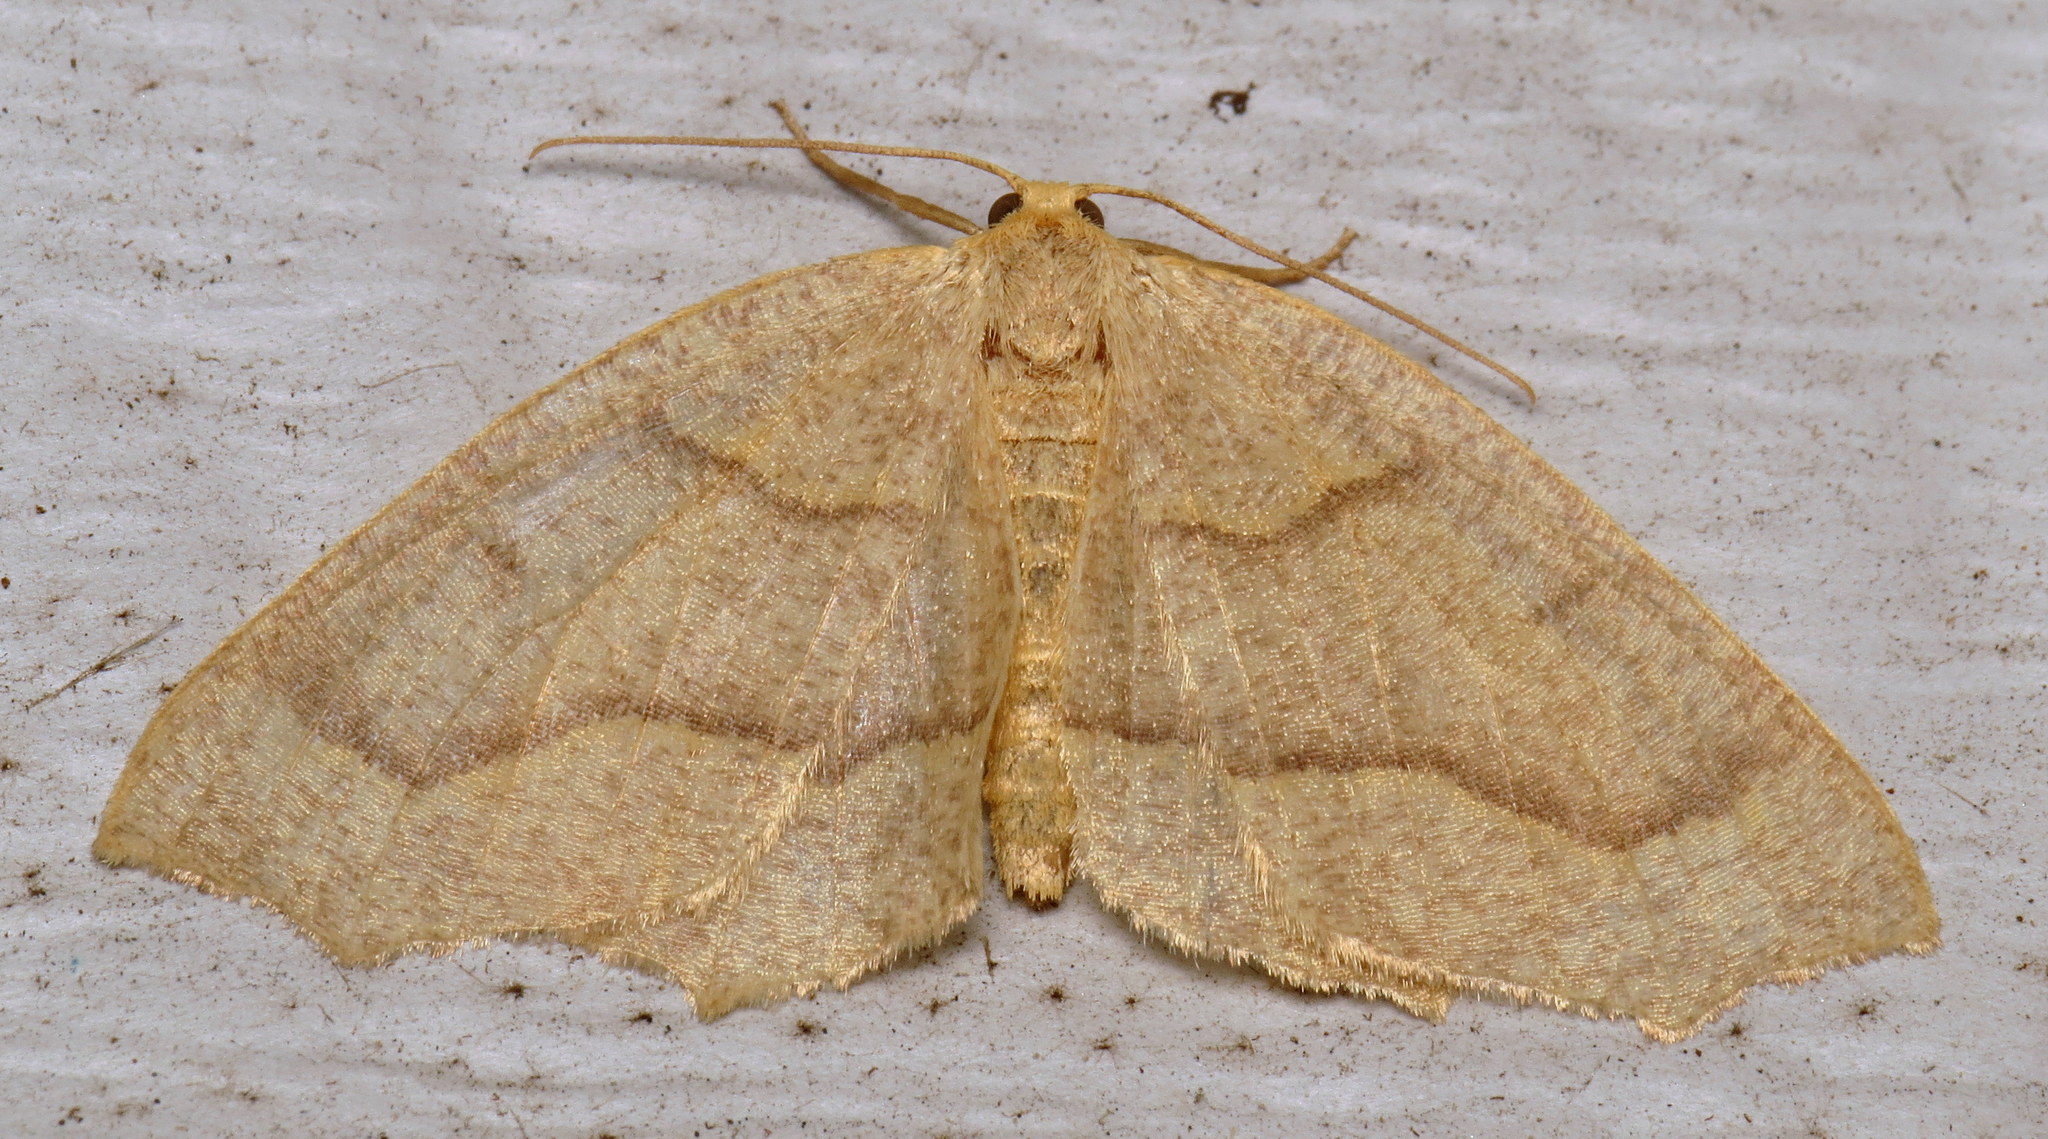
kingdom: Animalia
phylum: Arthropoda
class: Insecta
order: Lepidoptera
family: Geometridae
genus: Lambdina
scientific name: Lambdina fiscellaria
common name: Hemlock looper
